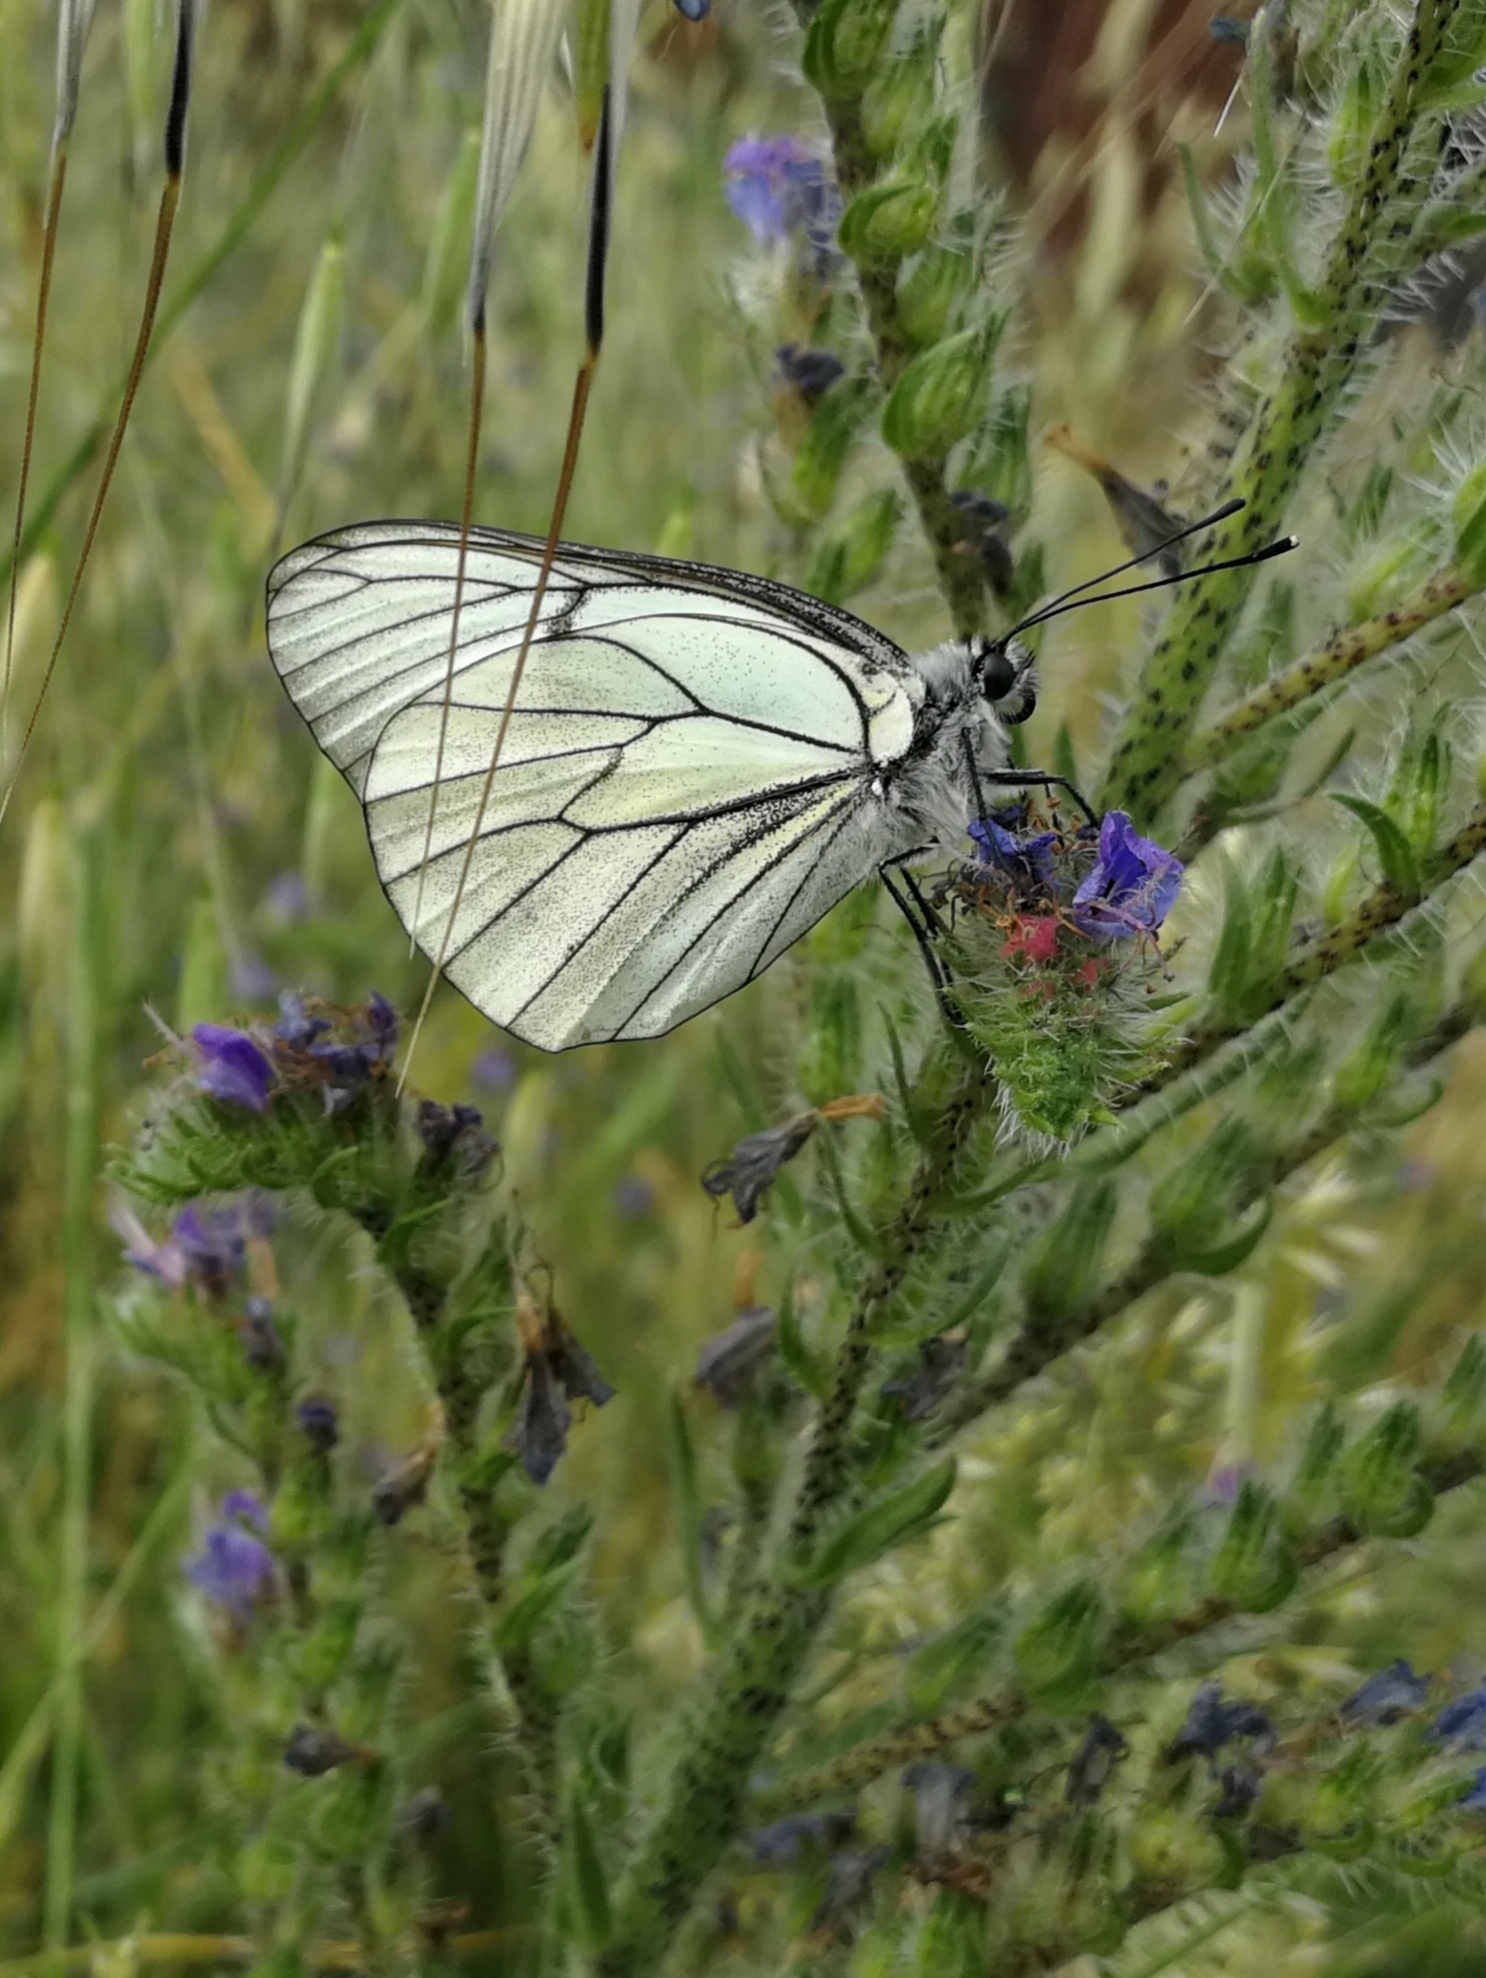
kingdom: Animalia
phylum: Arthropoda
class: Insecta
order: Lepidoptera
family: Pieridae
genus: Aporia
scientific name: Aporia crataegi
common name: Black-veined white
